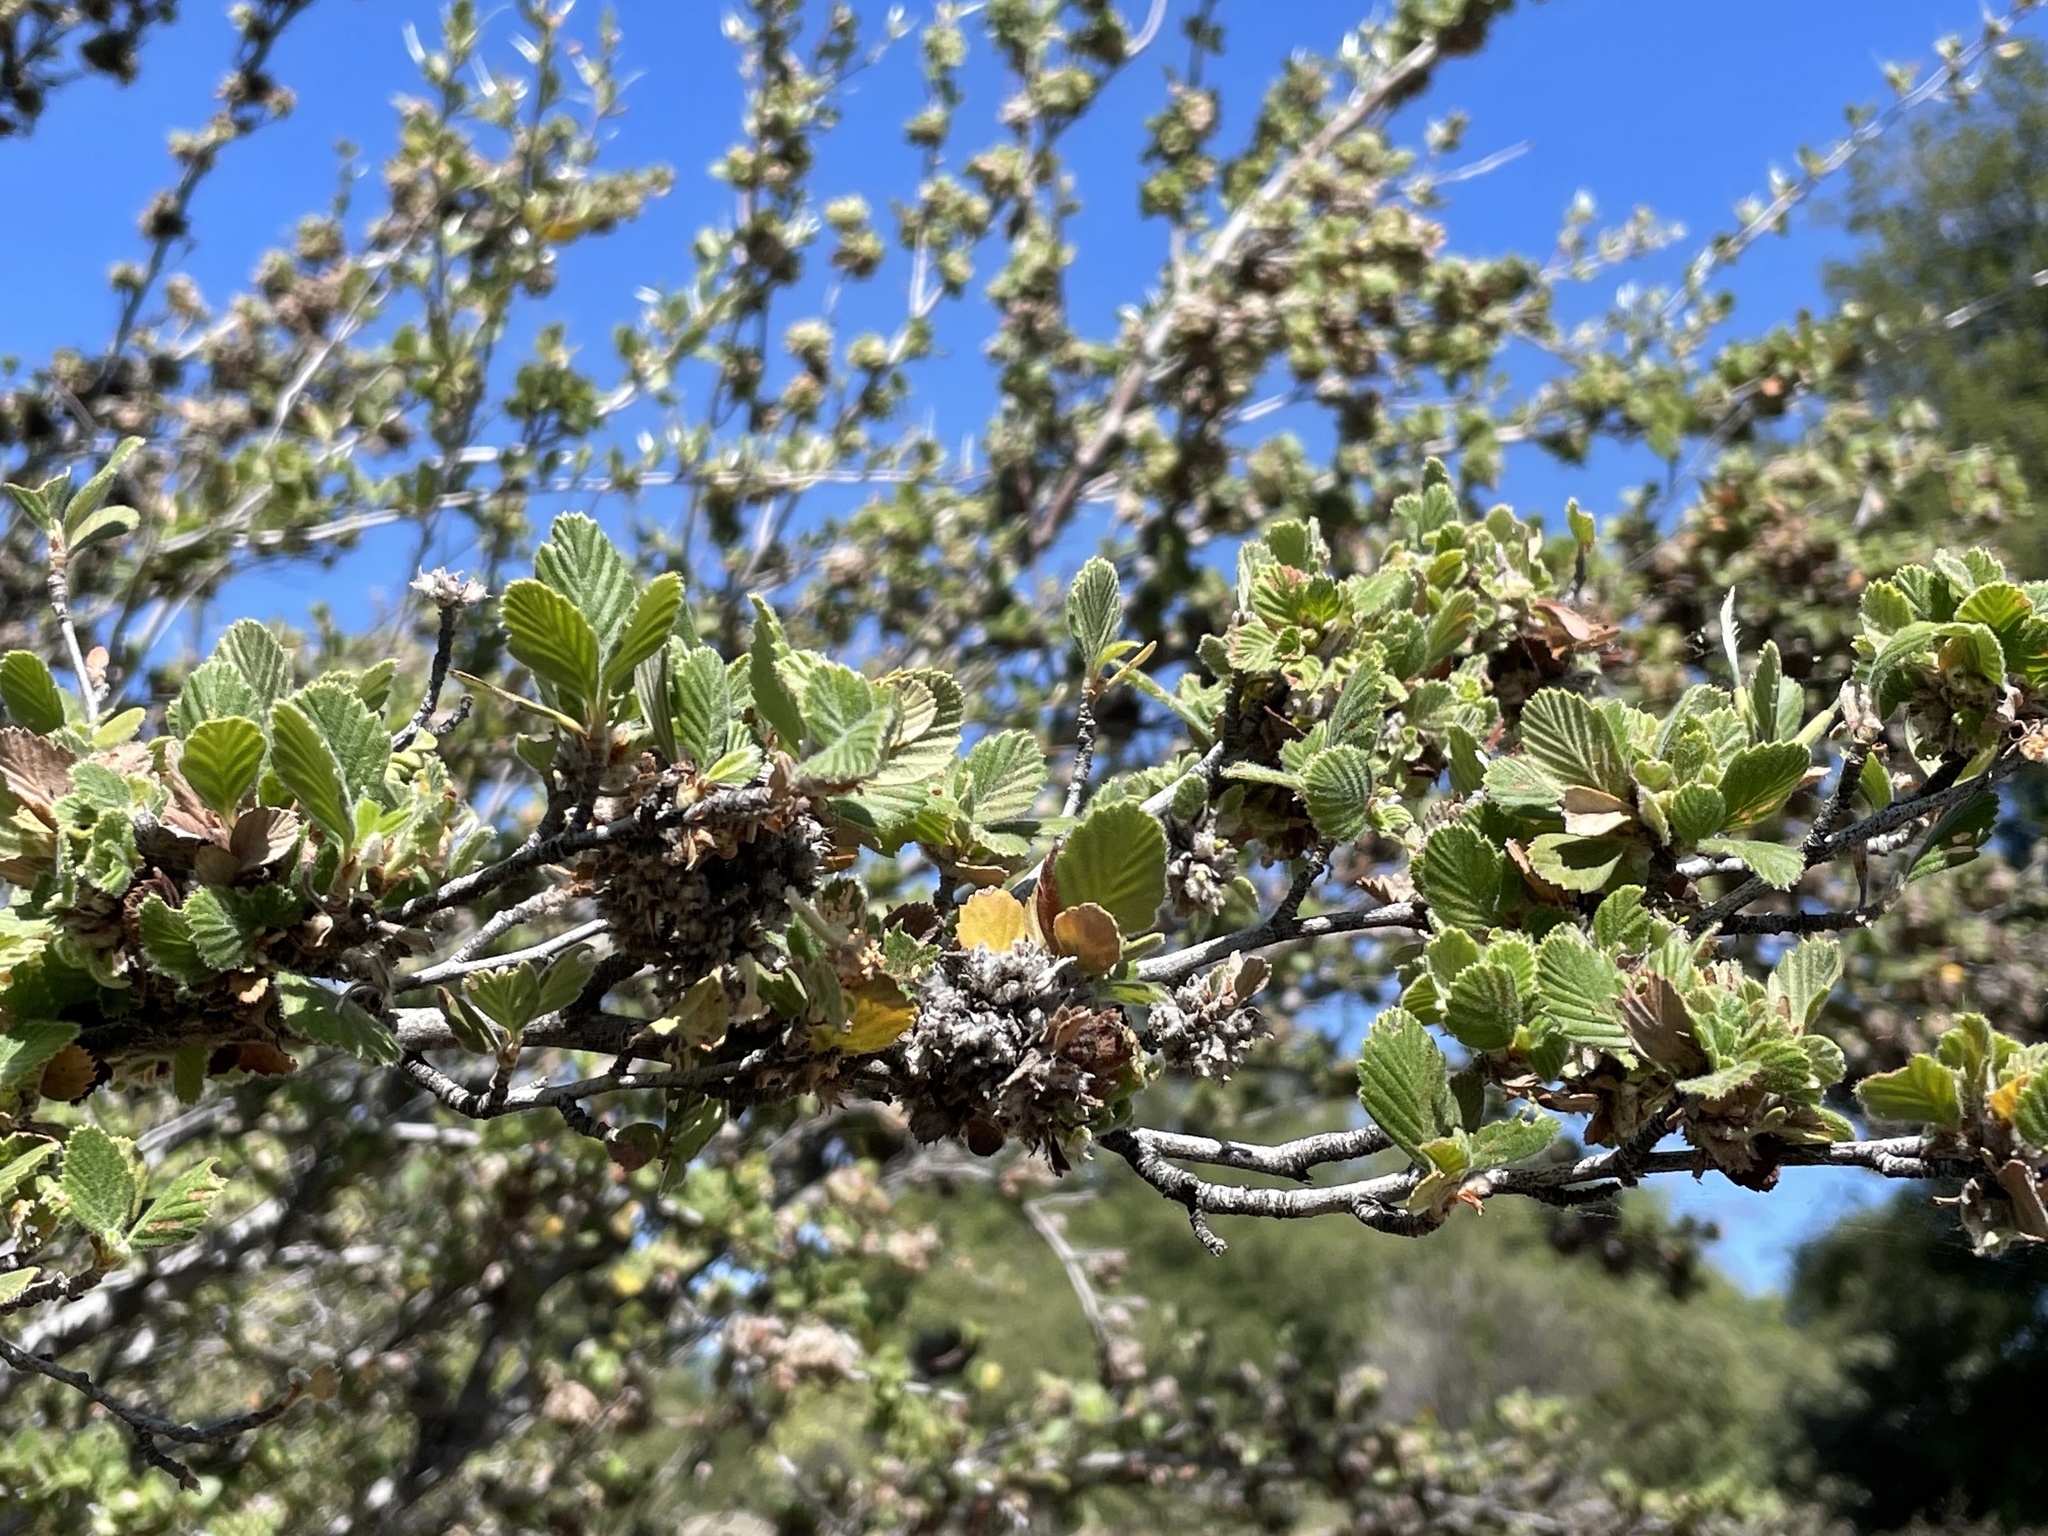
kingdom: Plantae
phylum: Tracheophyta
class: Magnoliopsida
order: Rosales
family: Rosaceae
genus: Cercocarpus
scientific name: Cercocarpus betuloides
